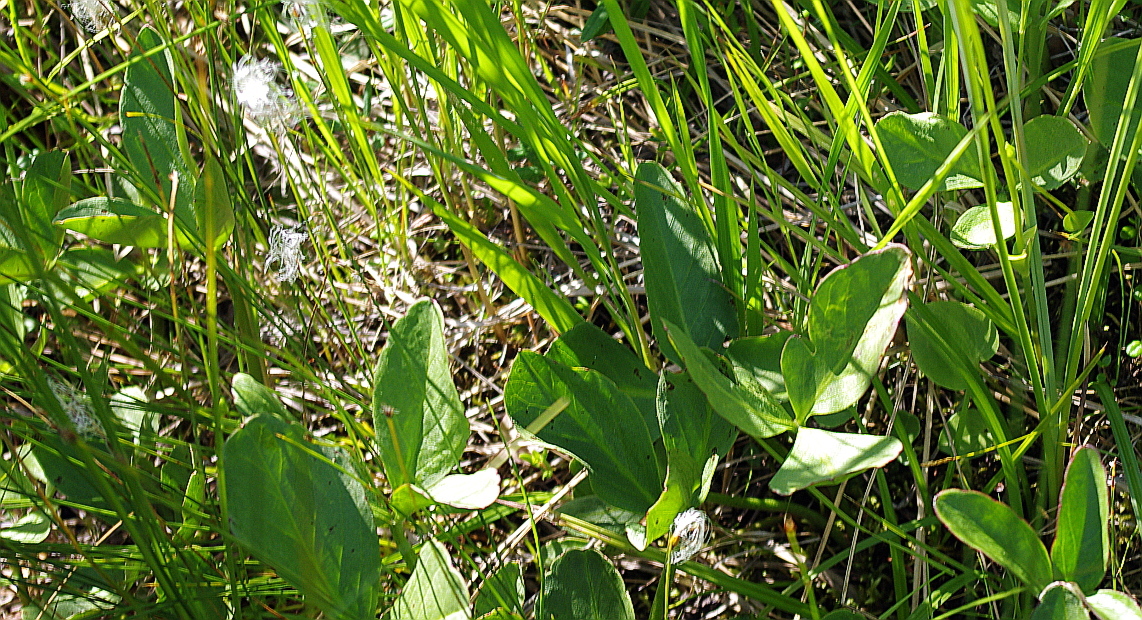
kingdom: Plantae
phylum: Tracheophyta
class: Magnoliopsida
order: Asterales
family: Menyanthaceae
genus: Menyanthes
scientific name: Menyanthes trifoliata
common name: Bogbean
